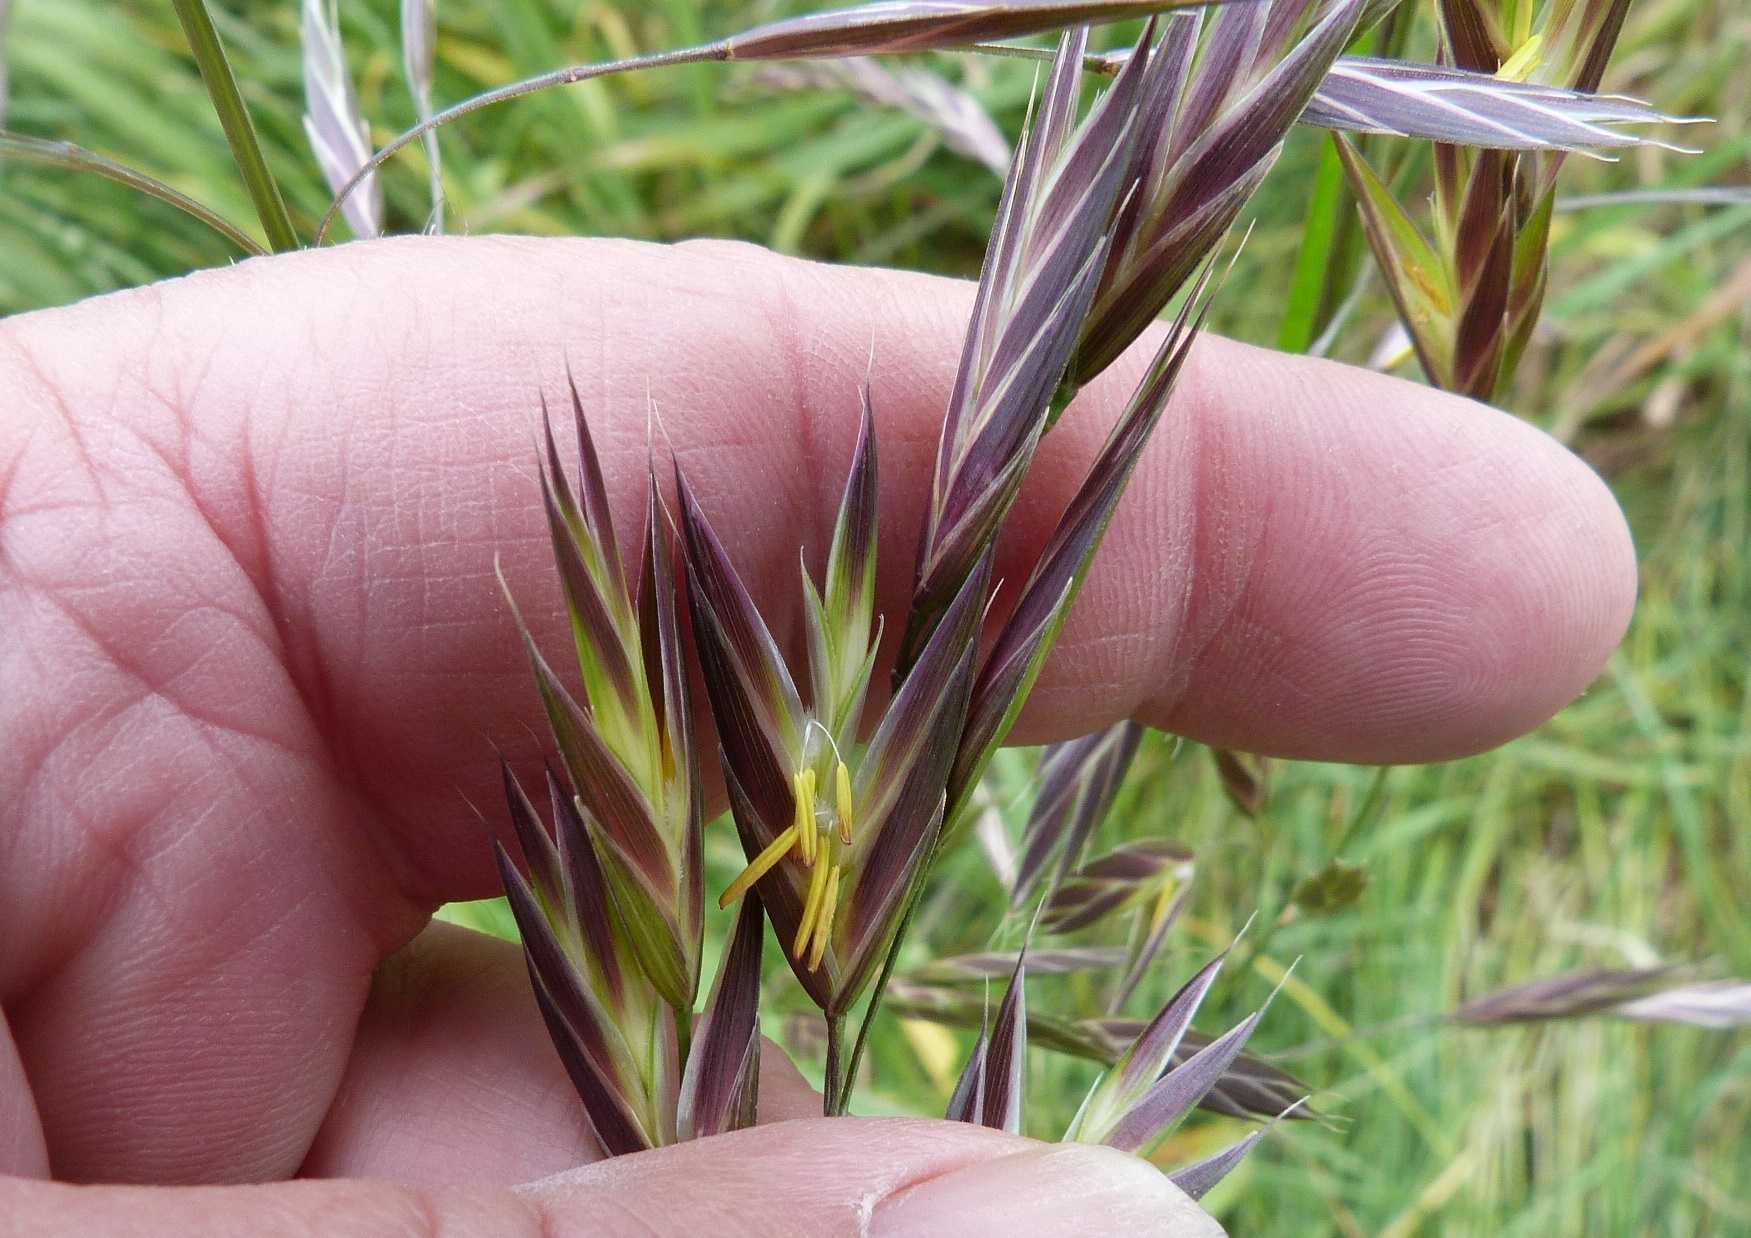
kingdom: Plantae
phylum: Tracheophyta
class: Liliopsida
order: Poales
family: Poaceae
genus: Bromus
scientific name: Bromus catharticus
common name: Rescuegrass
